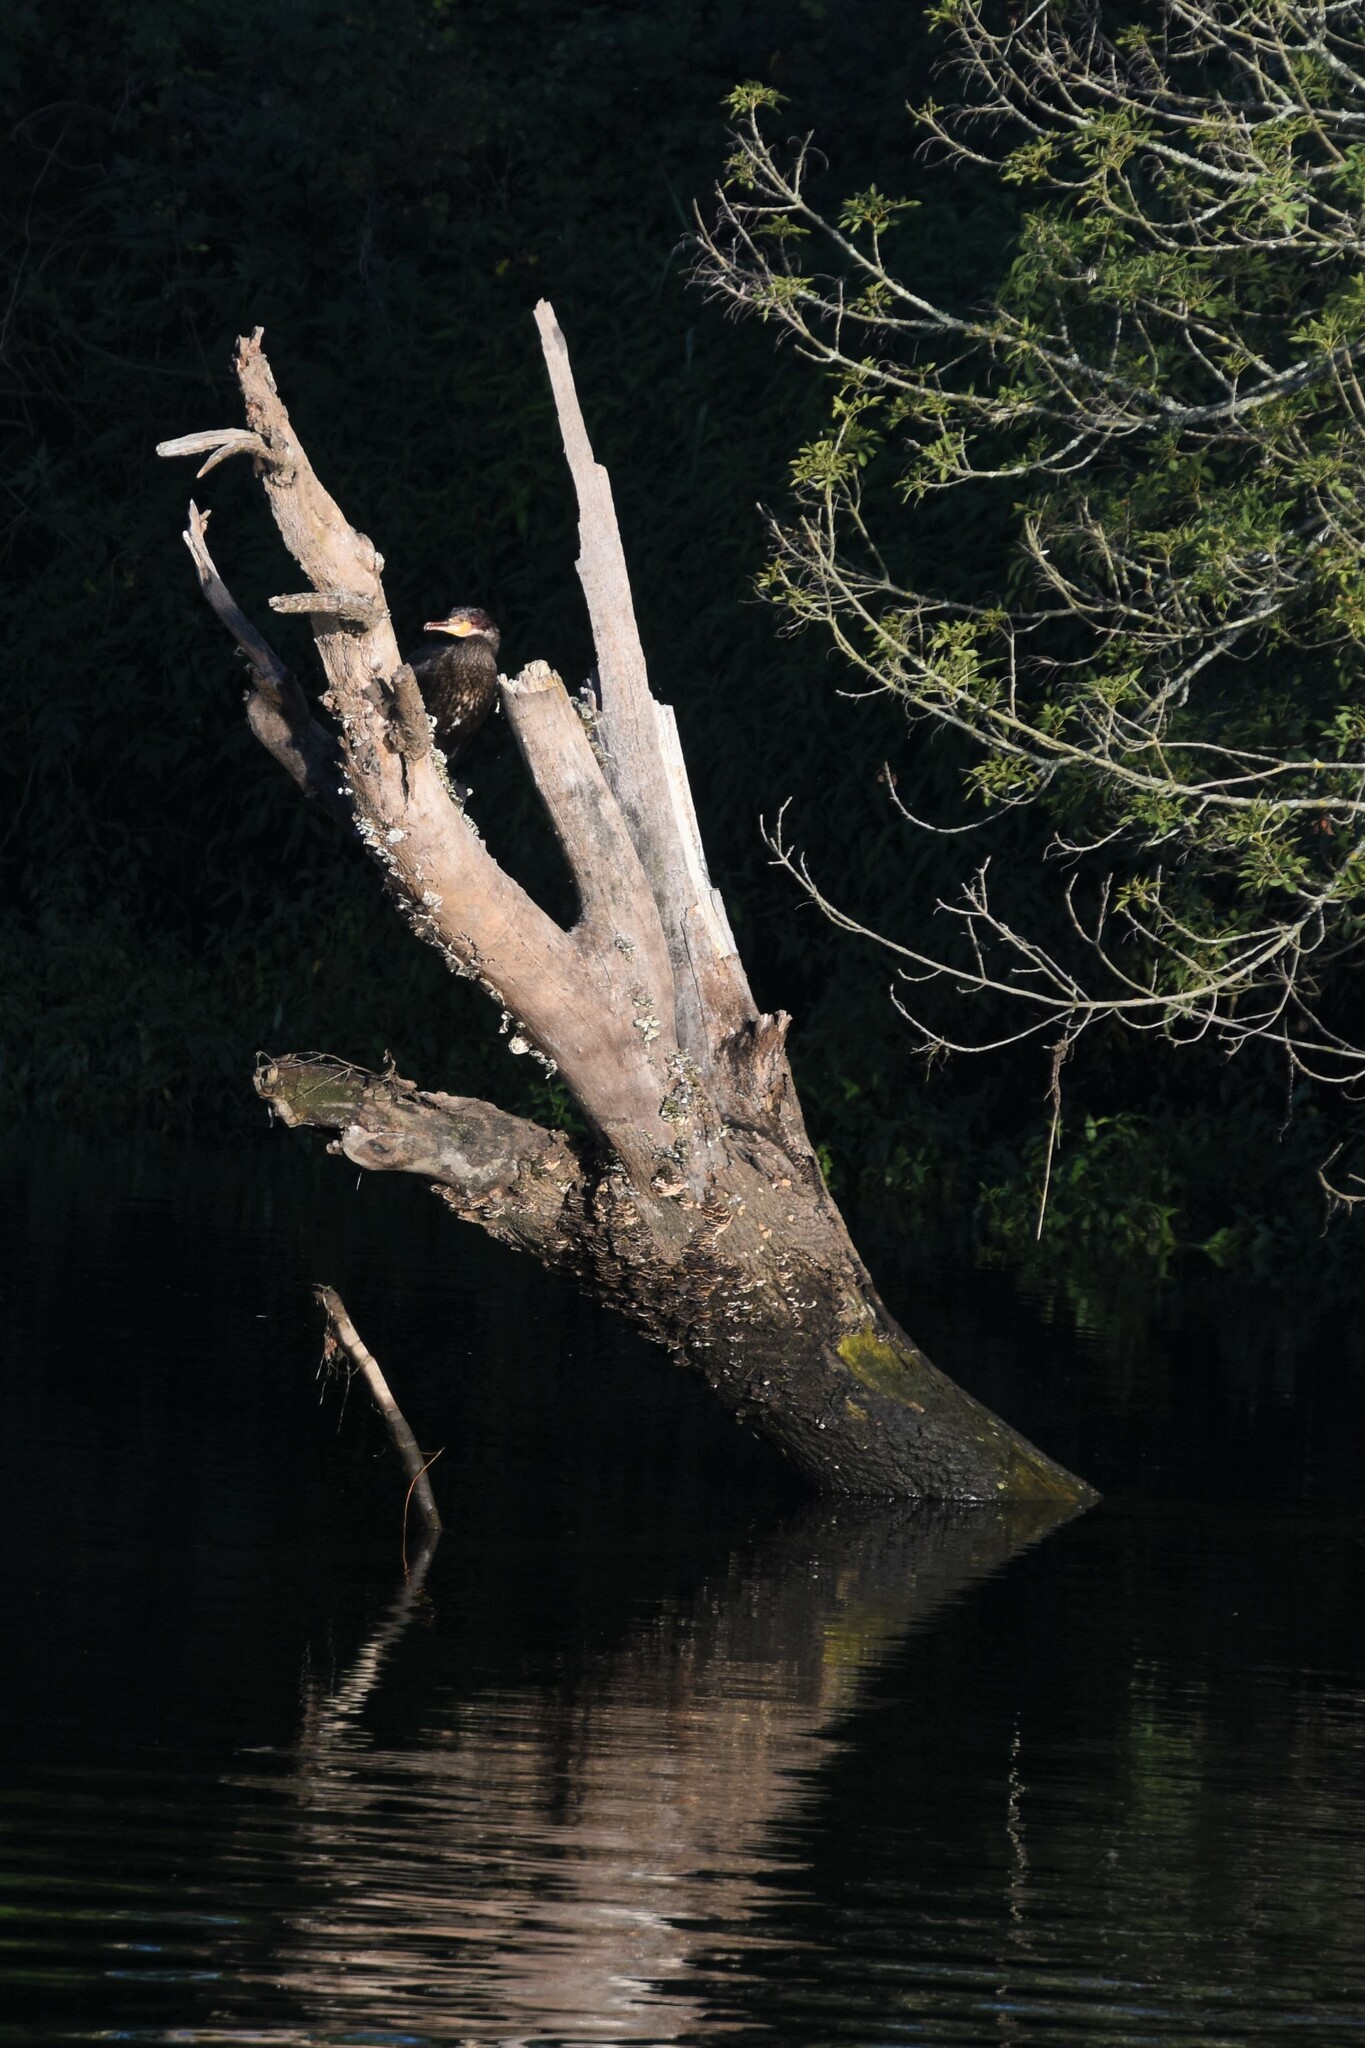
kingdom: Animalia
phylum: Chordata
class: Aves
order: Suliformes
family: Phalacrocoracidae
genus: Phalacrocorax
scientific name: Phalacrocorax carbo
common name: Great cormorant
